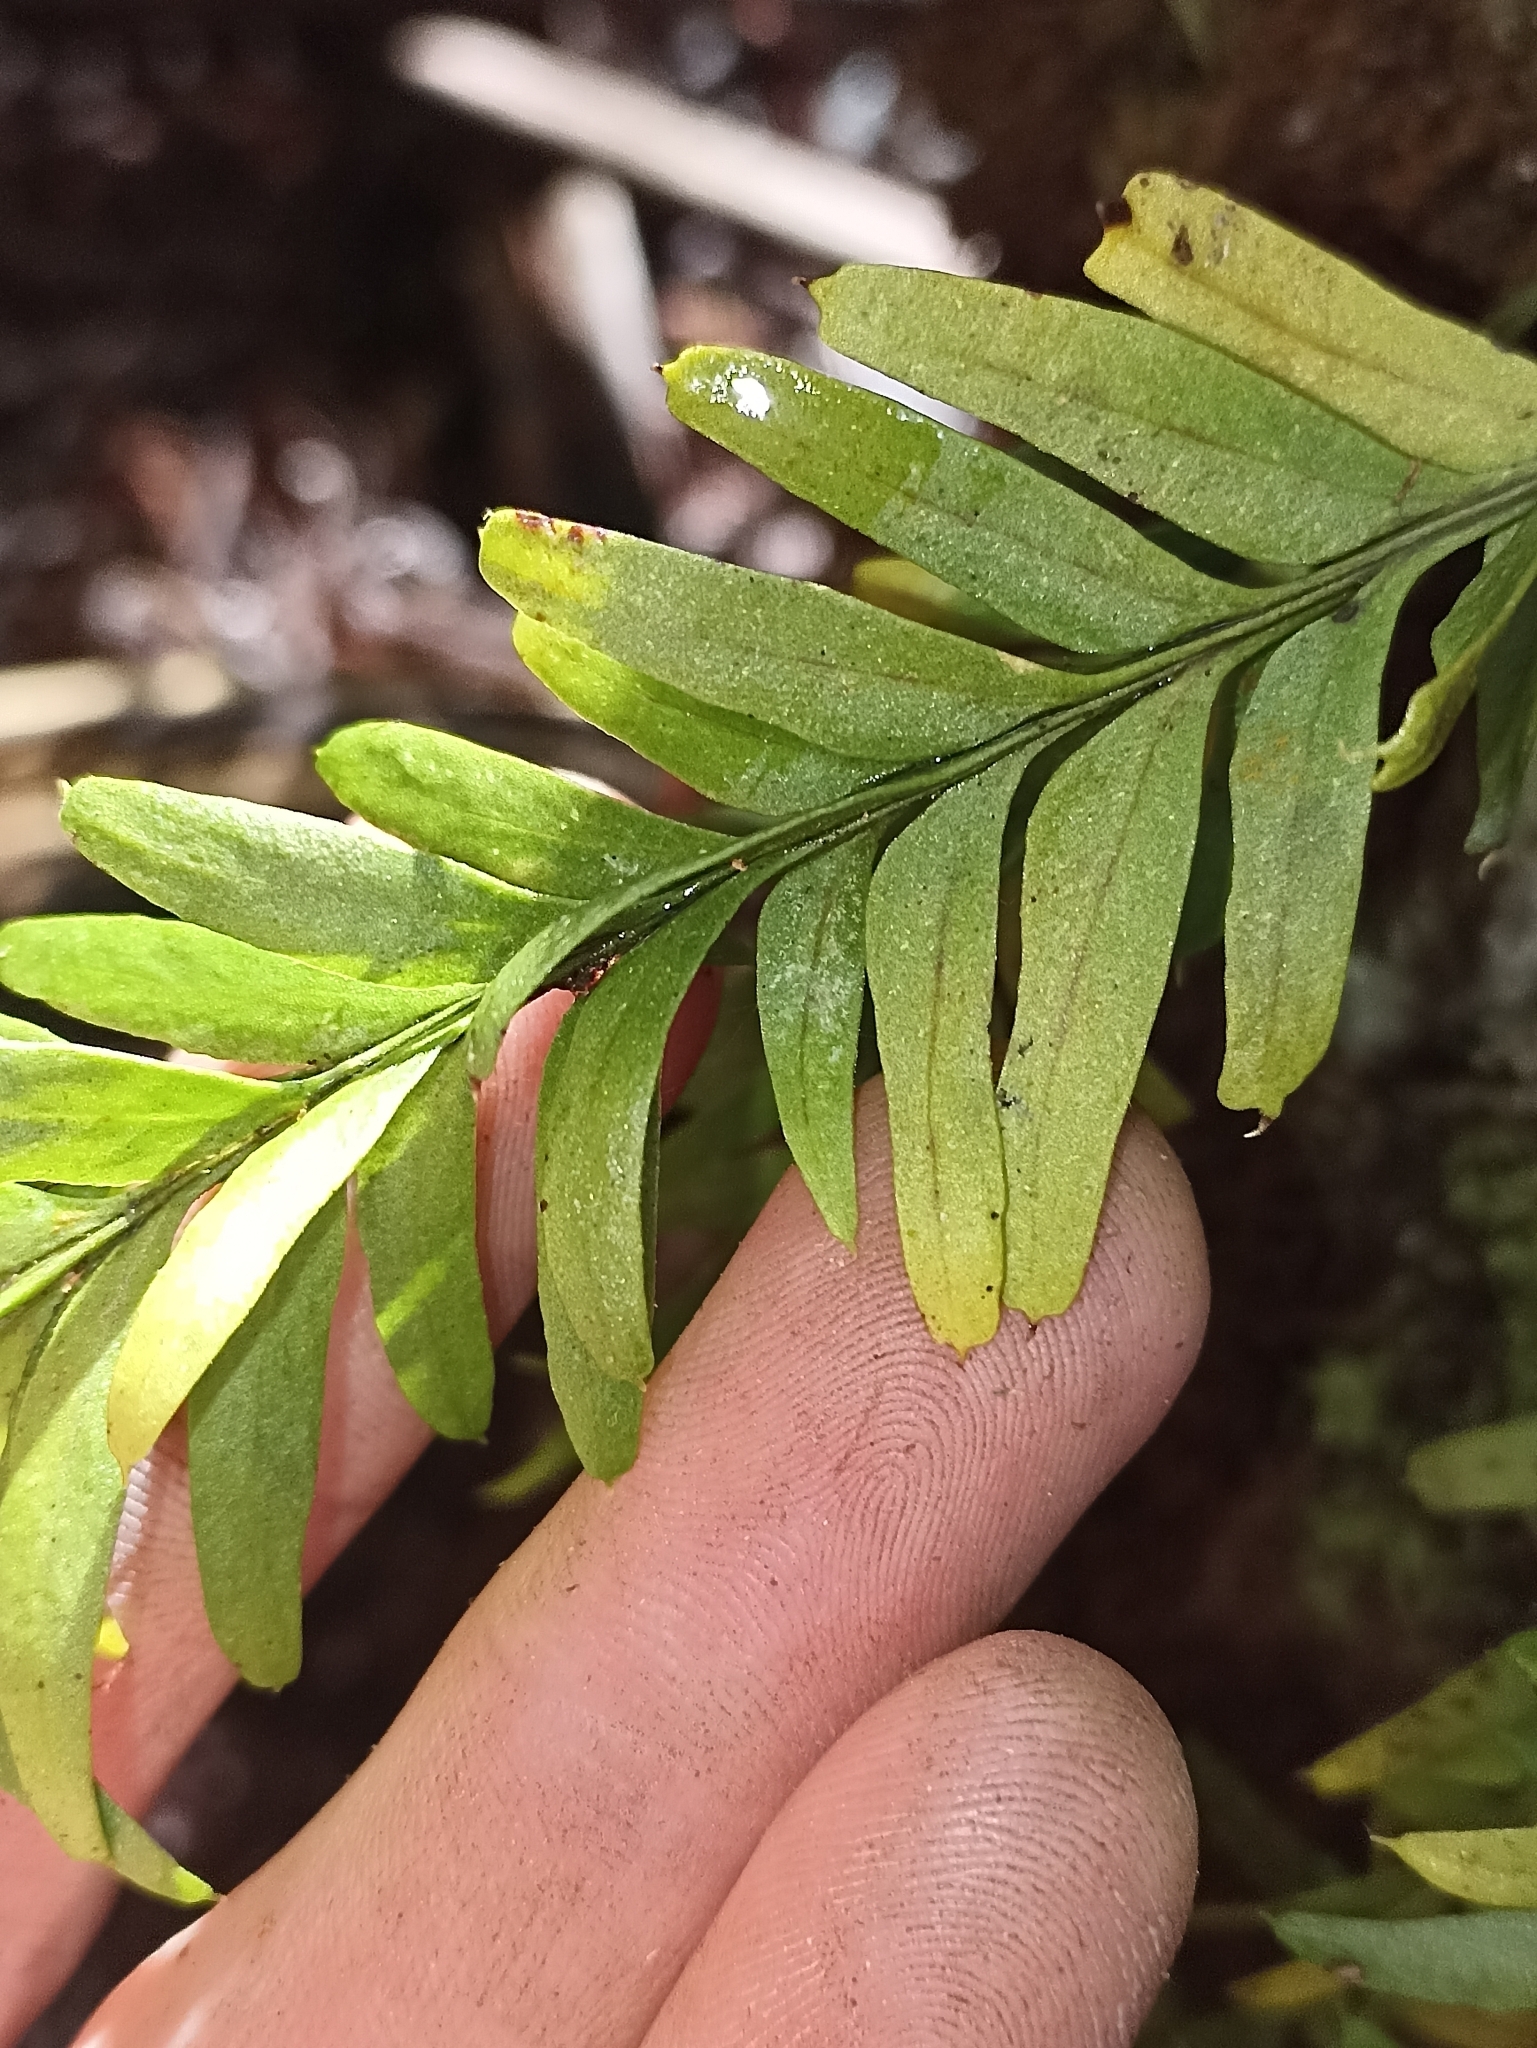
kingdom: Plantae
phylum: Tracheophyta
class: Polypodiopsida
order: Psilotales
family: Psilotaceae
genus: Tmesipteris
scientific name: Tmesipteris elongata
